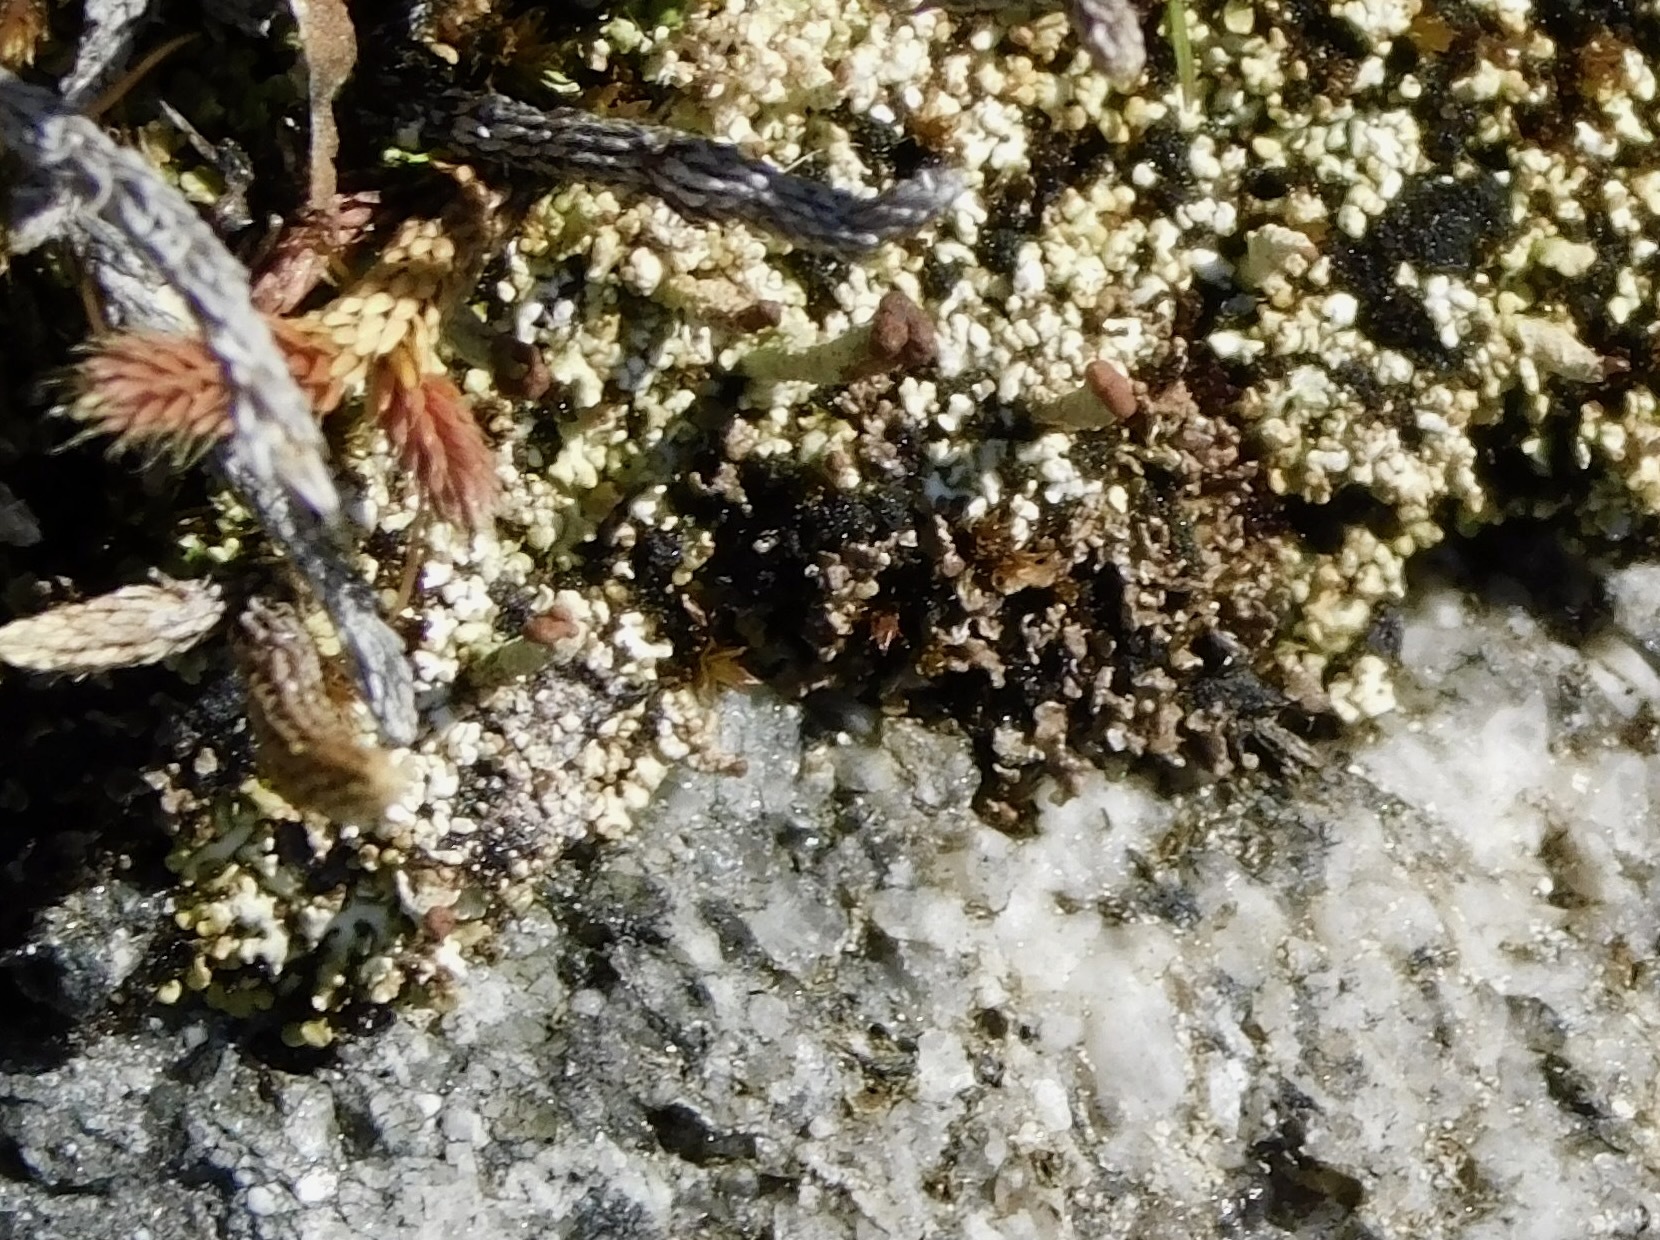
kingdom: Fungi
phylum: Ascomycota
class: Lecanoromycetes
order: Lecanorales
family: Cladoniaceae
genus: Cladonia
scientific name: Cladonia peziziformis
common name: Cup lichen
